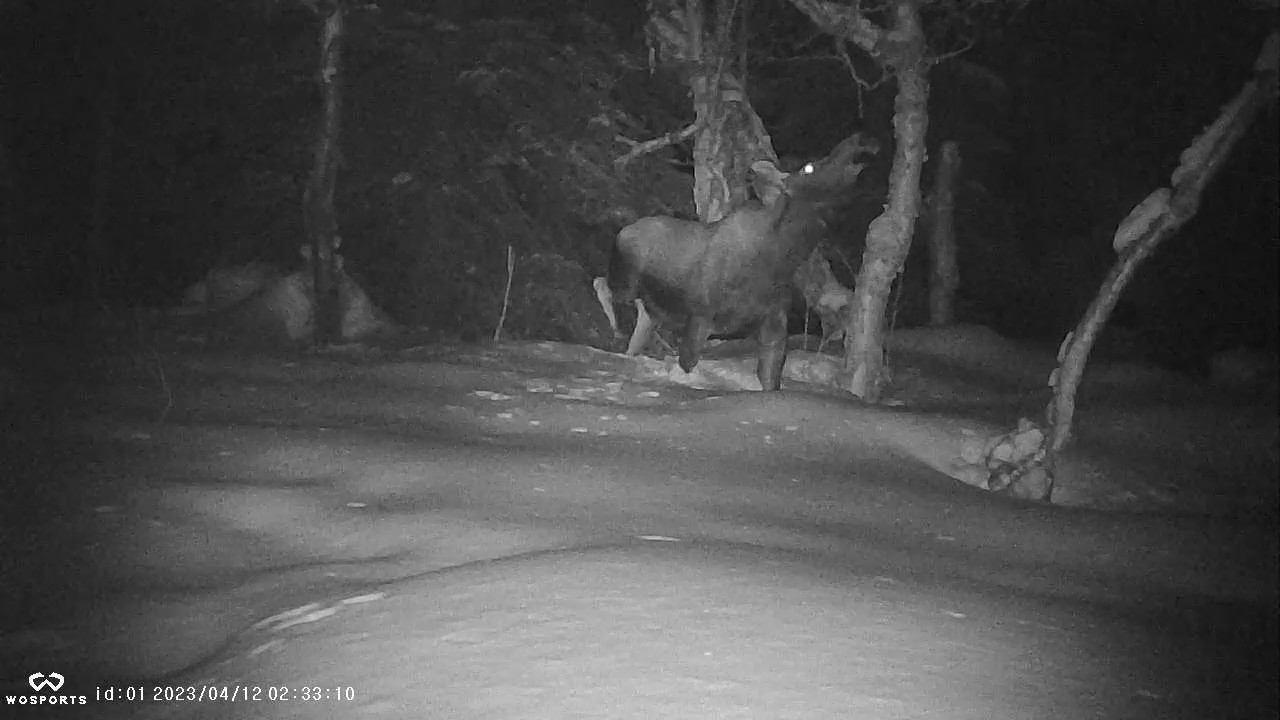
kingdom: Animalia
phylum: Chordata
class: Mammalia
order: Artiodactyla
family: Cervidae
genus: Alces
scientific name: Alces alces
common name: Moose
